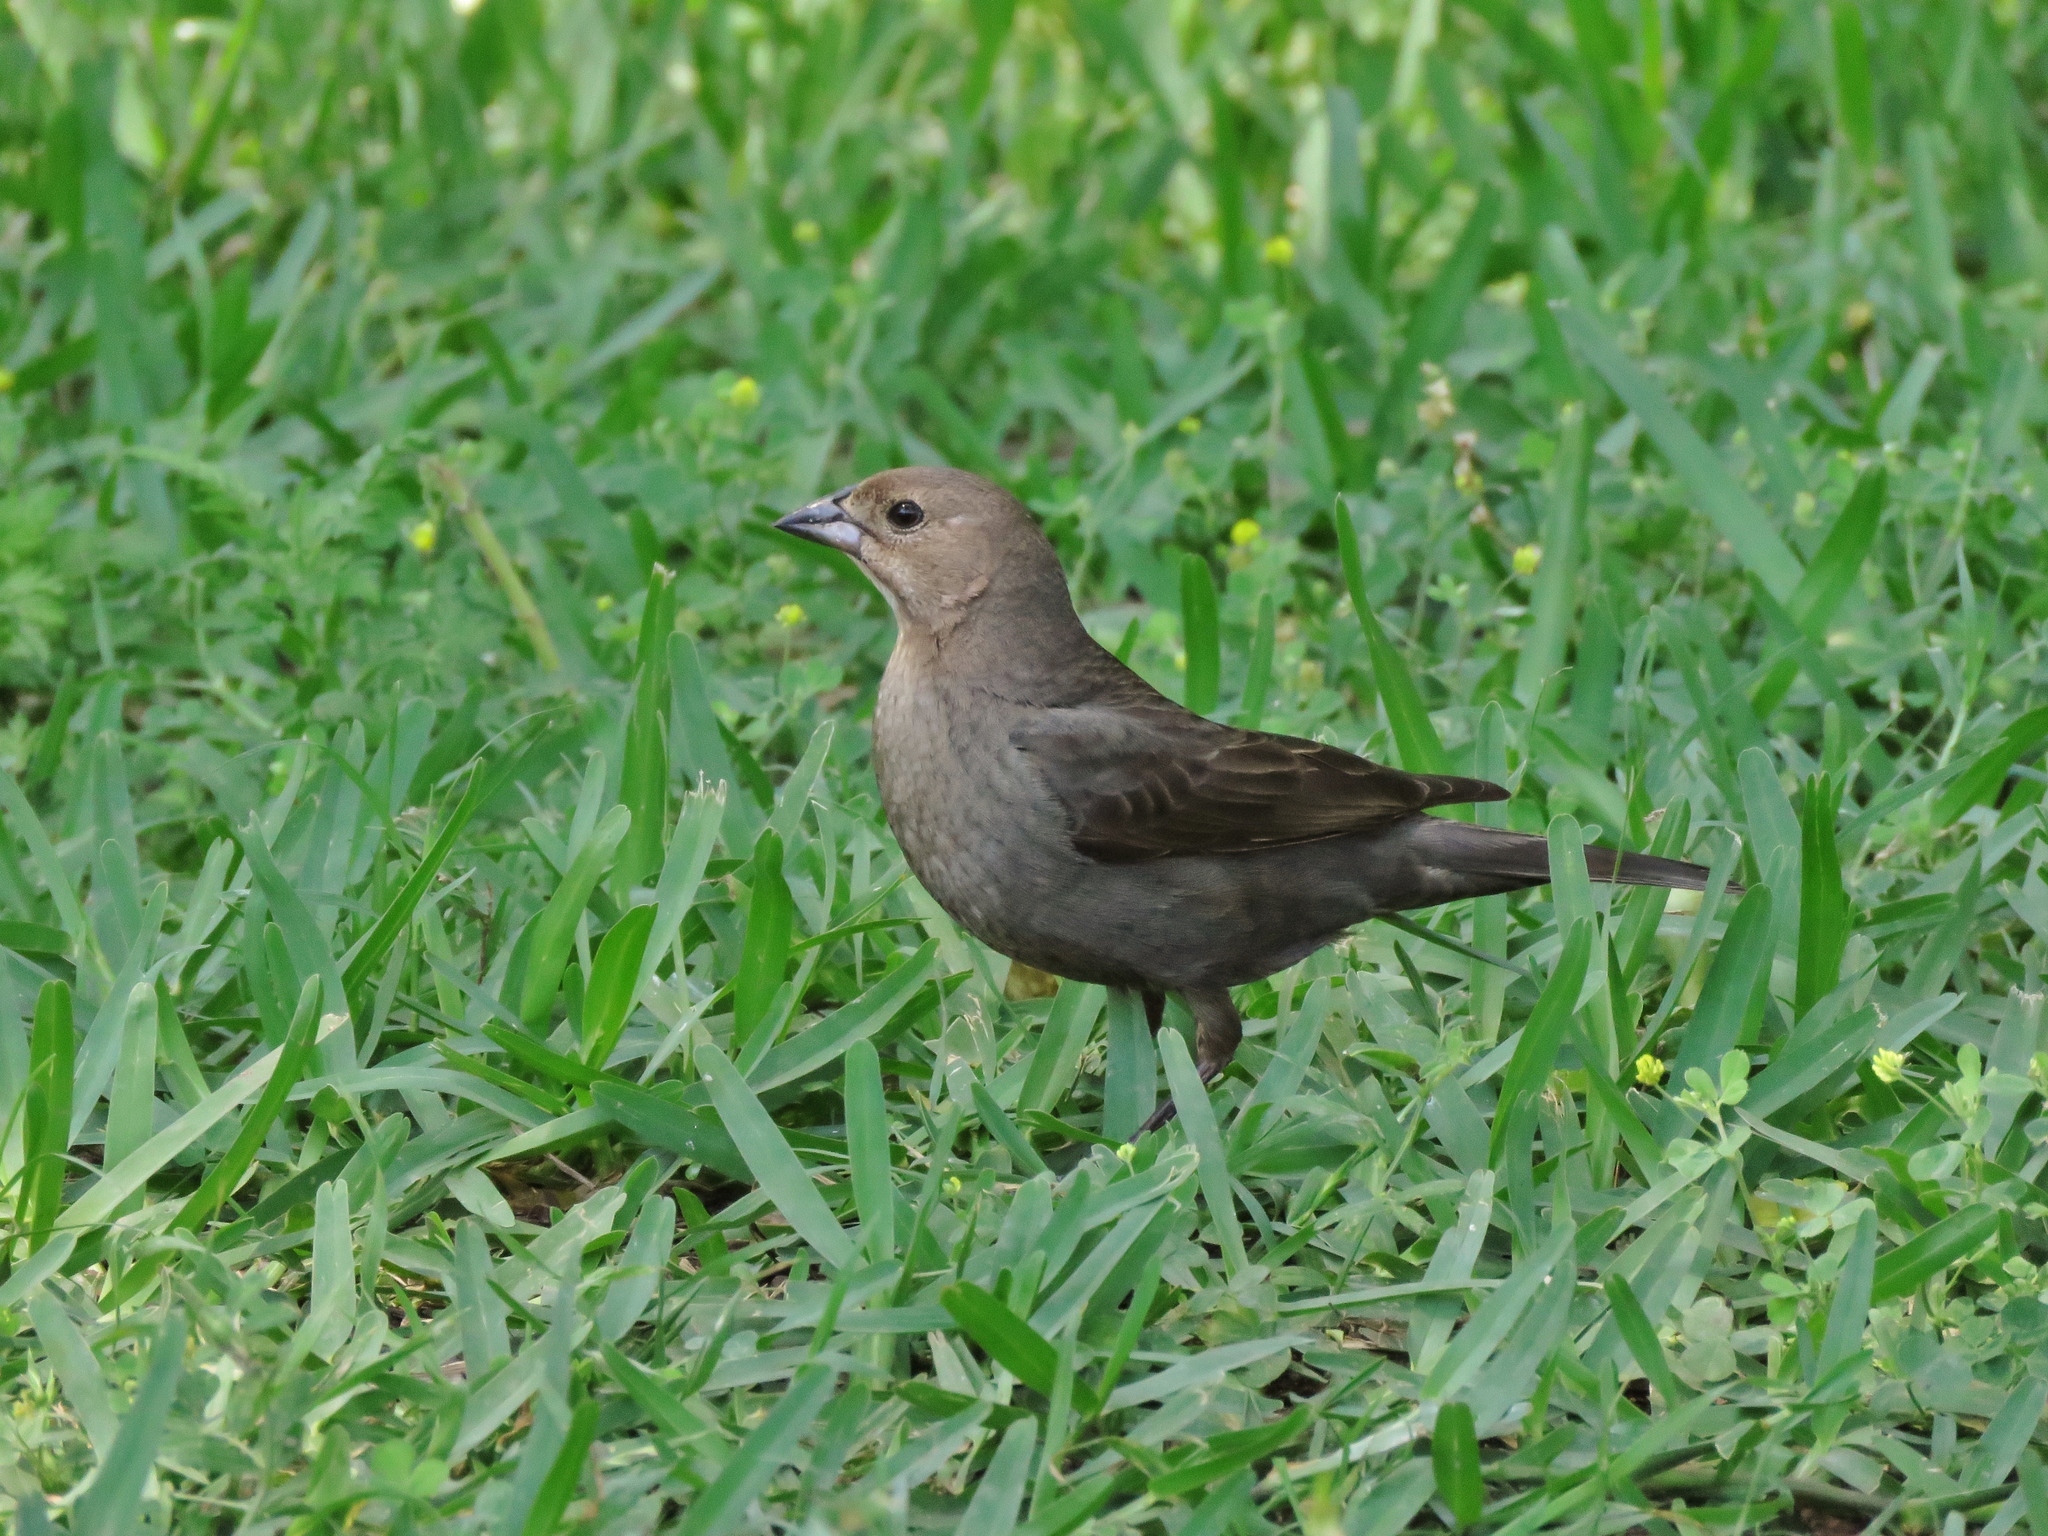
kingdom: Animalia
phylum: Chordata
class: Aves
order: Passeriformes
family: Icteridae
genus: Molothrus
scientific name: Molothrus ater
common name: Brown-headed cowbird
